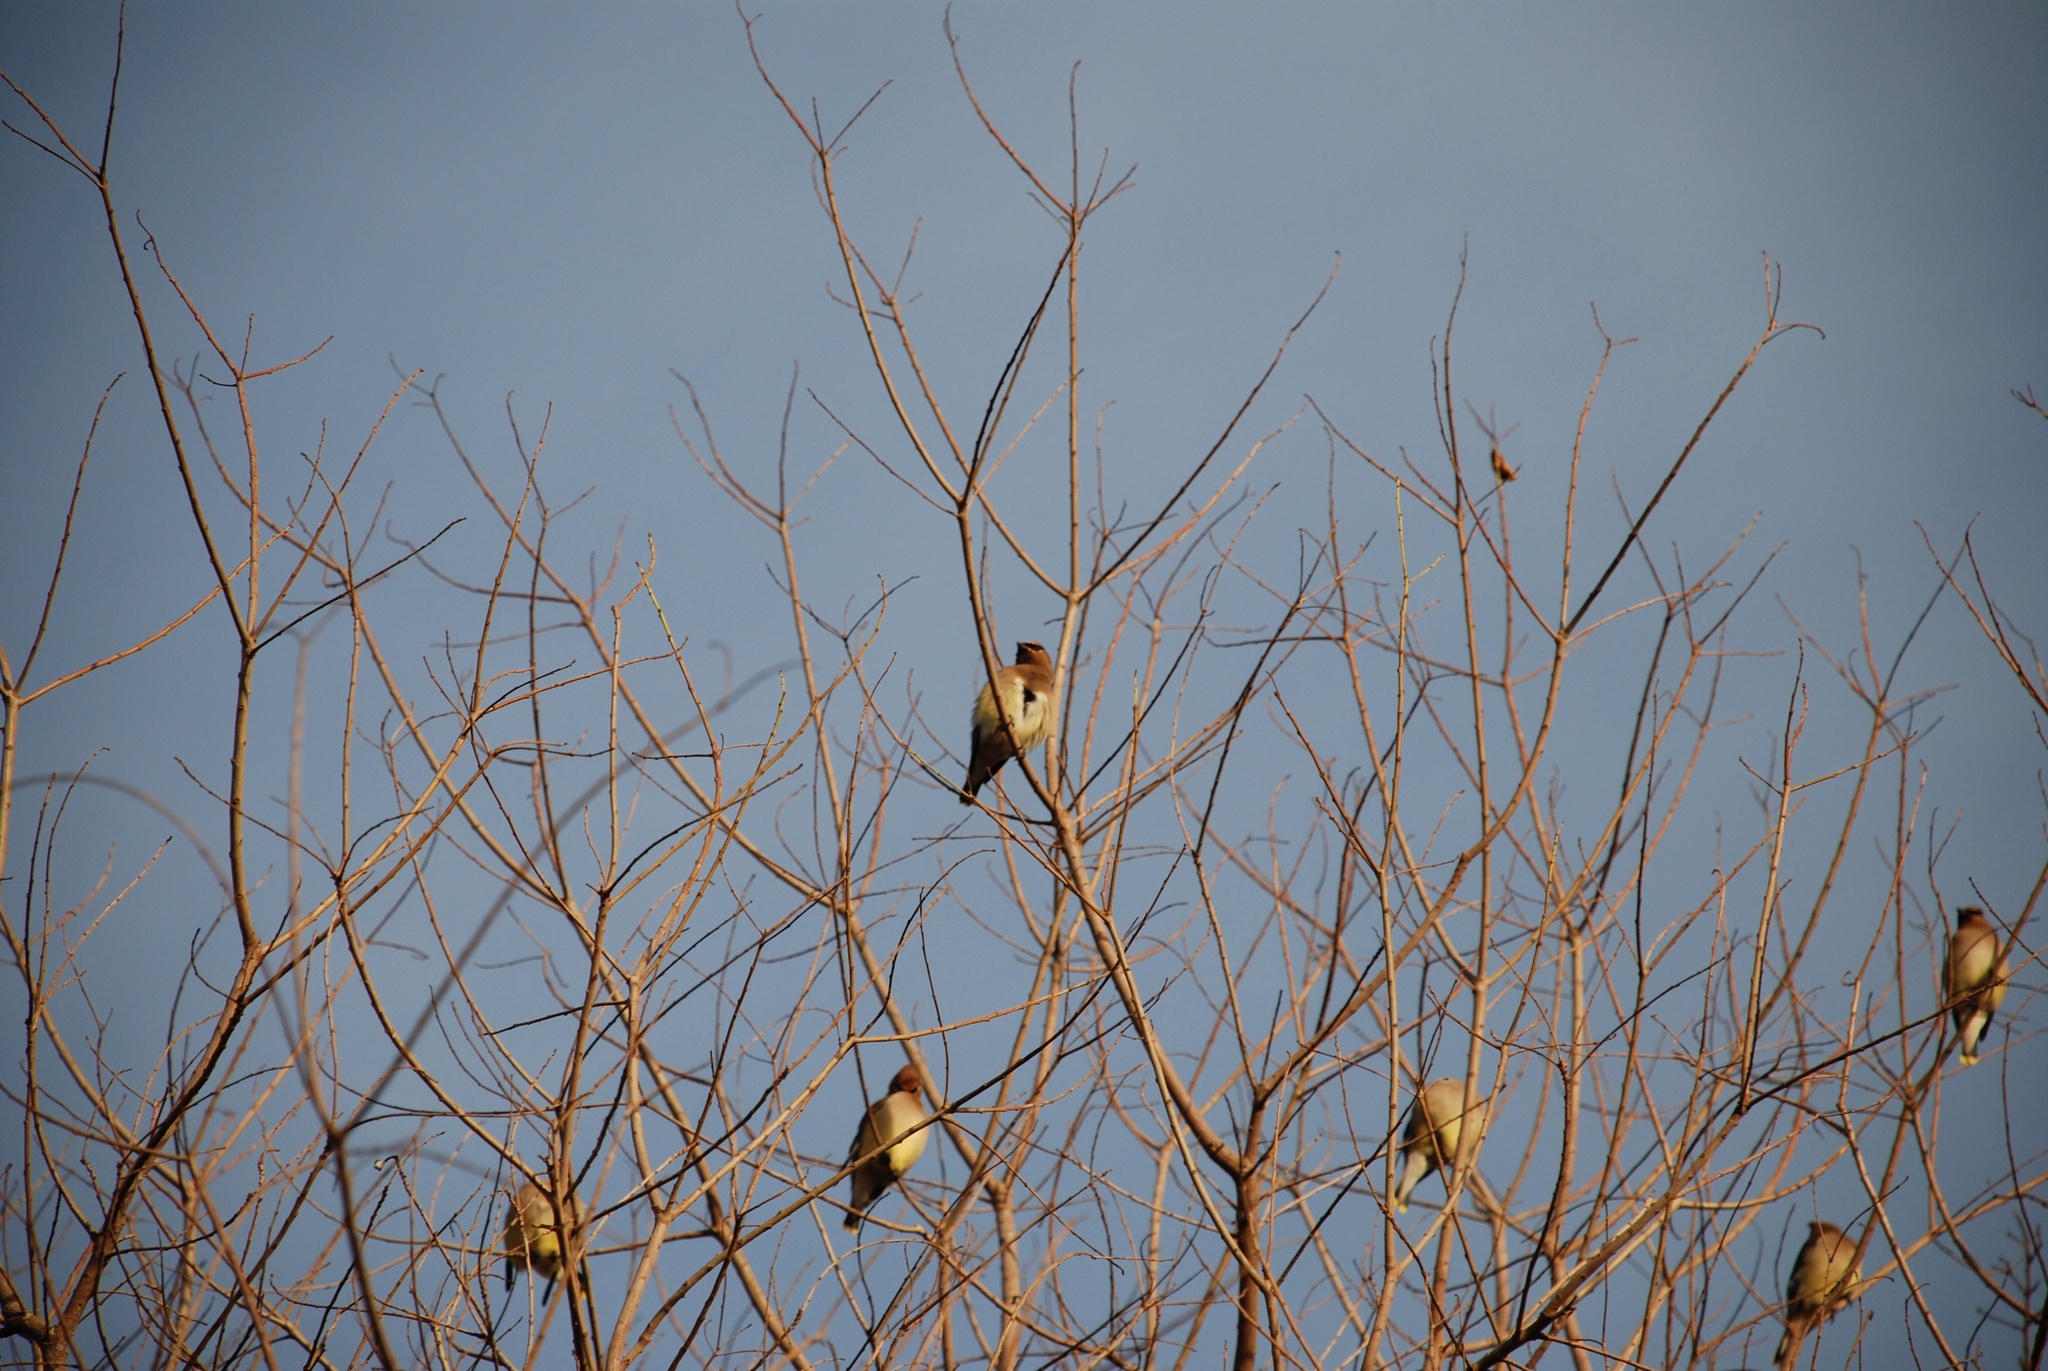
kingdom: Animalia
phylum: Chordata
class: Aves
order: Passeriformes
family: Bombycillidae
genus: Bombycilla
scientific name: Bombycilla cedrorum
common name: Cedar waxwing
